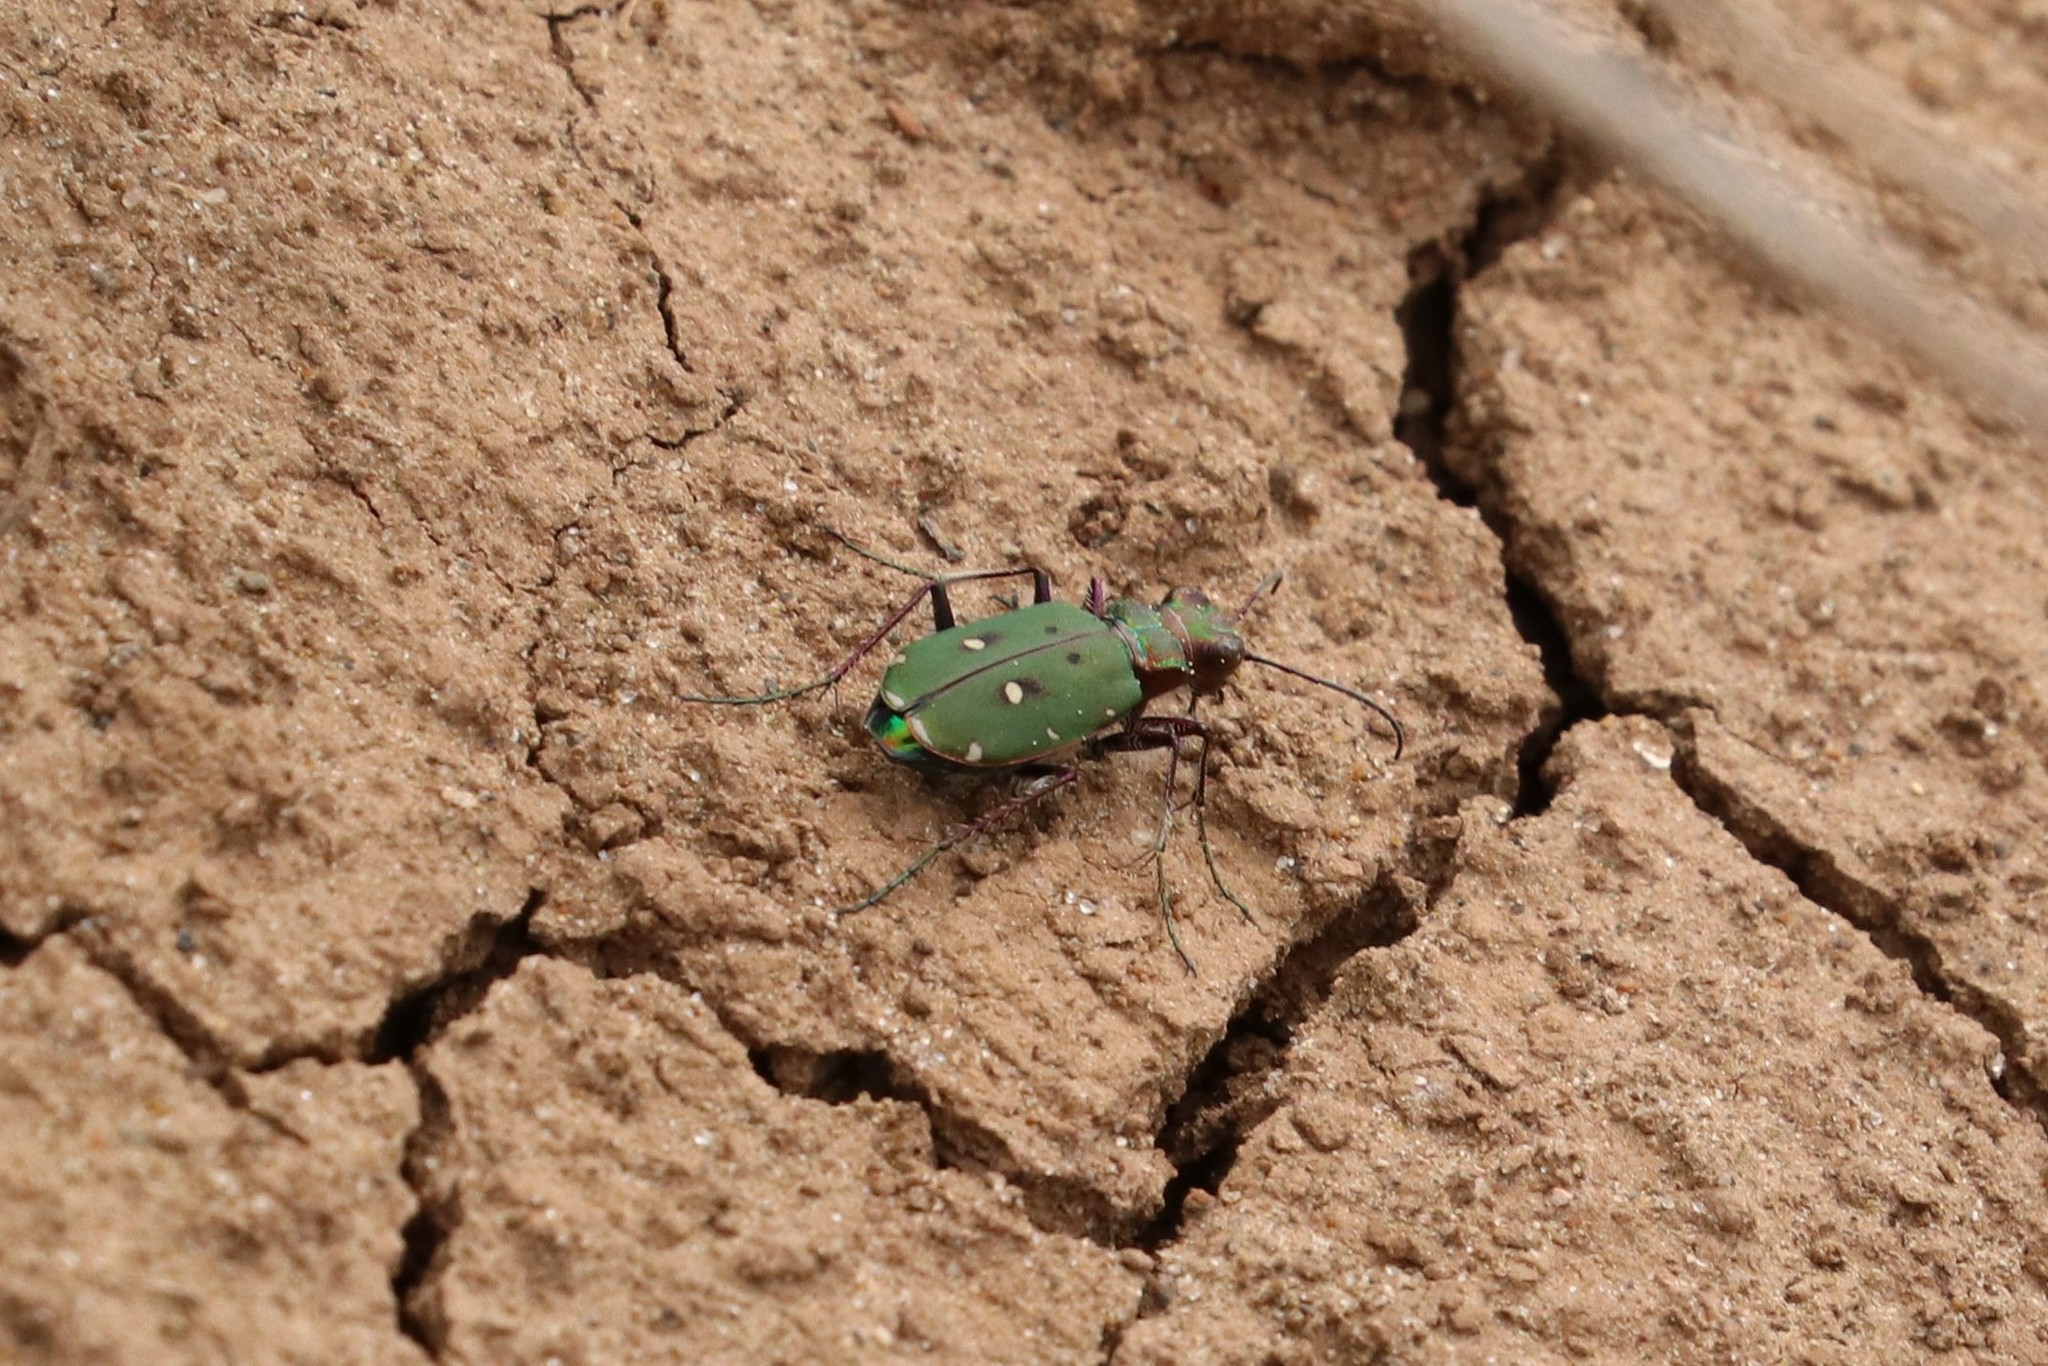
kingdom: Animalia
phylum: Arthropoda
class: Insecta
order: Coleoptera
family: Carabidae
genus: Cicindela
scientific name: Cicindela campestris
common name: Common tiger beetle
